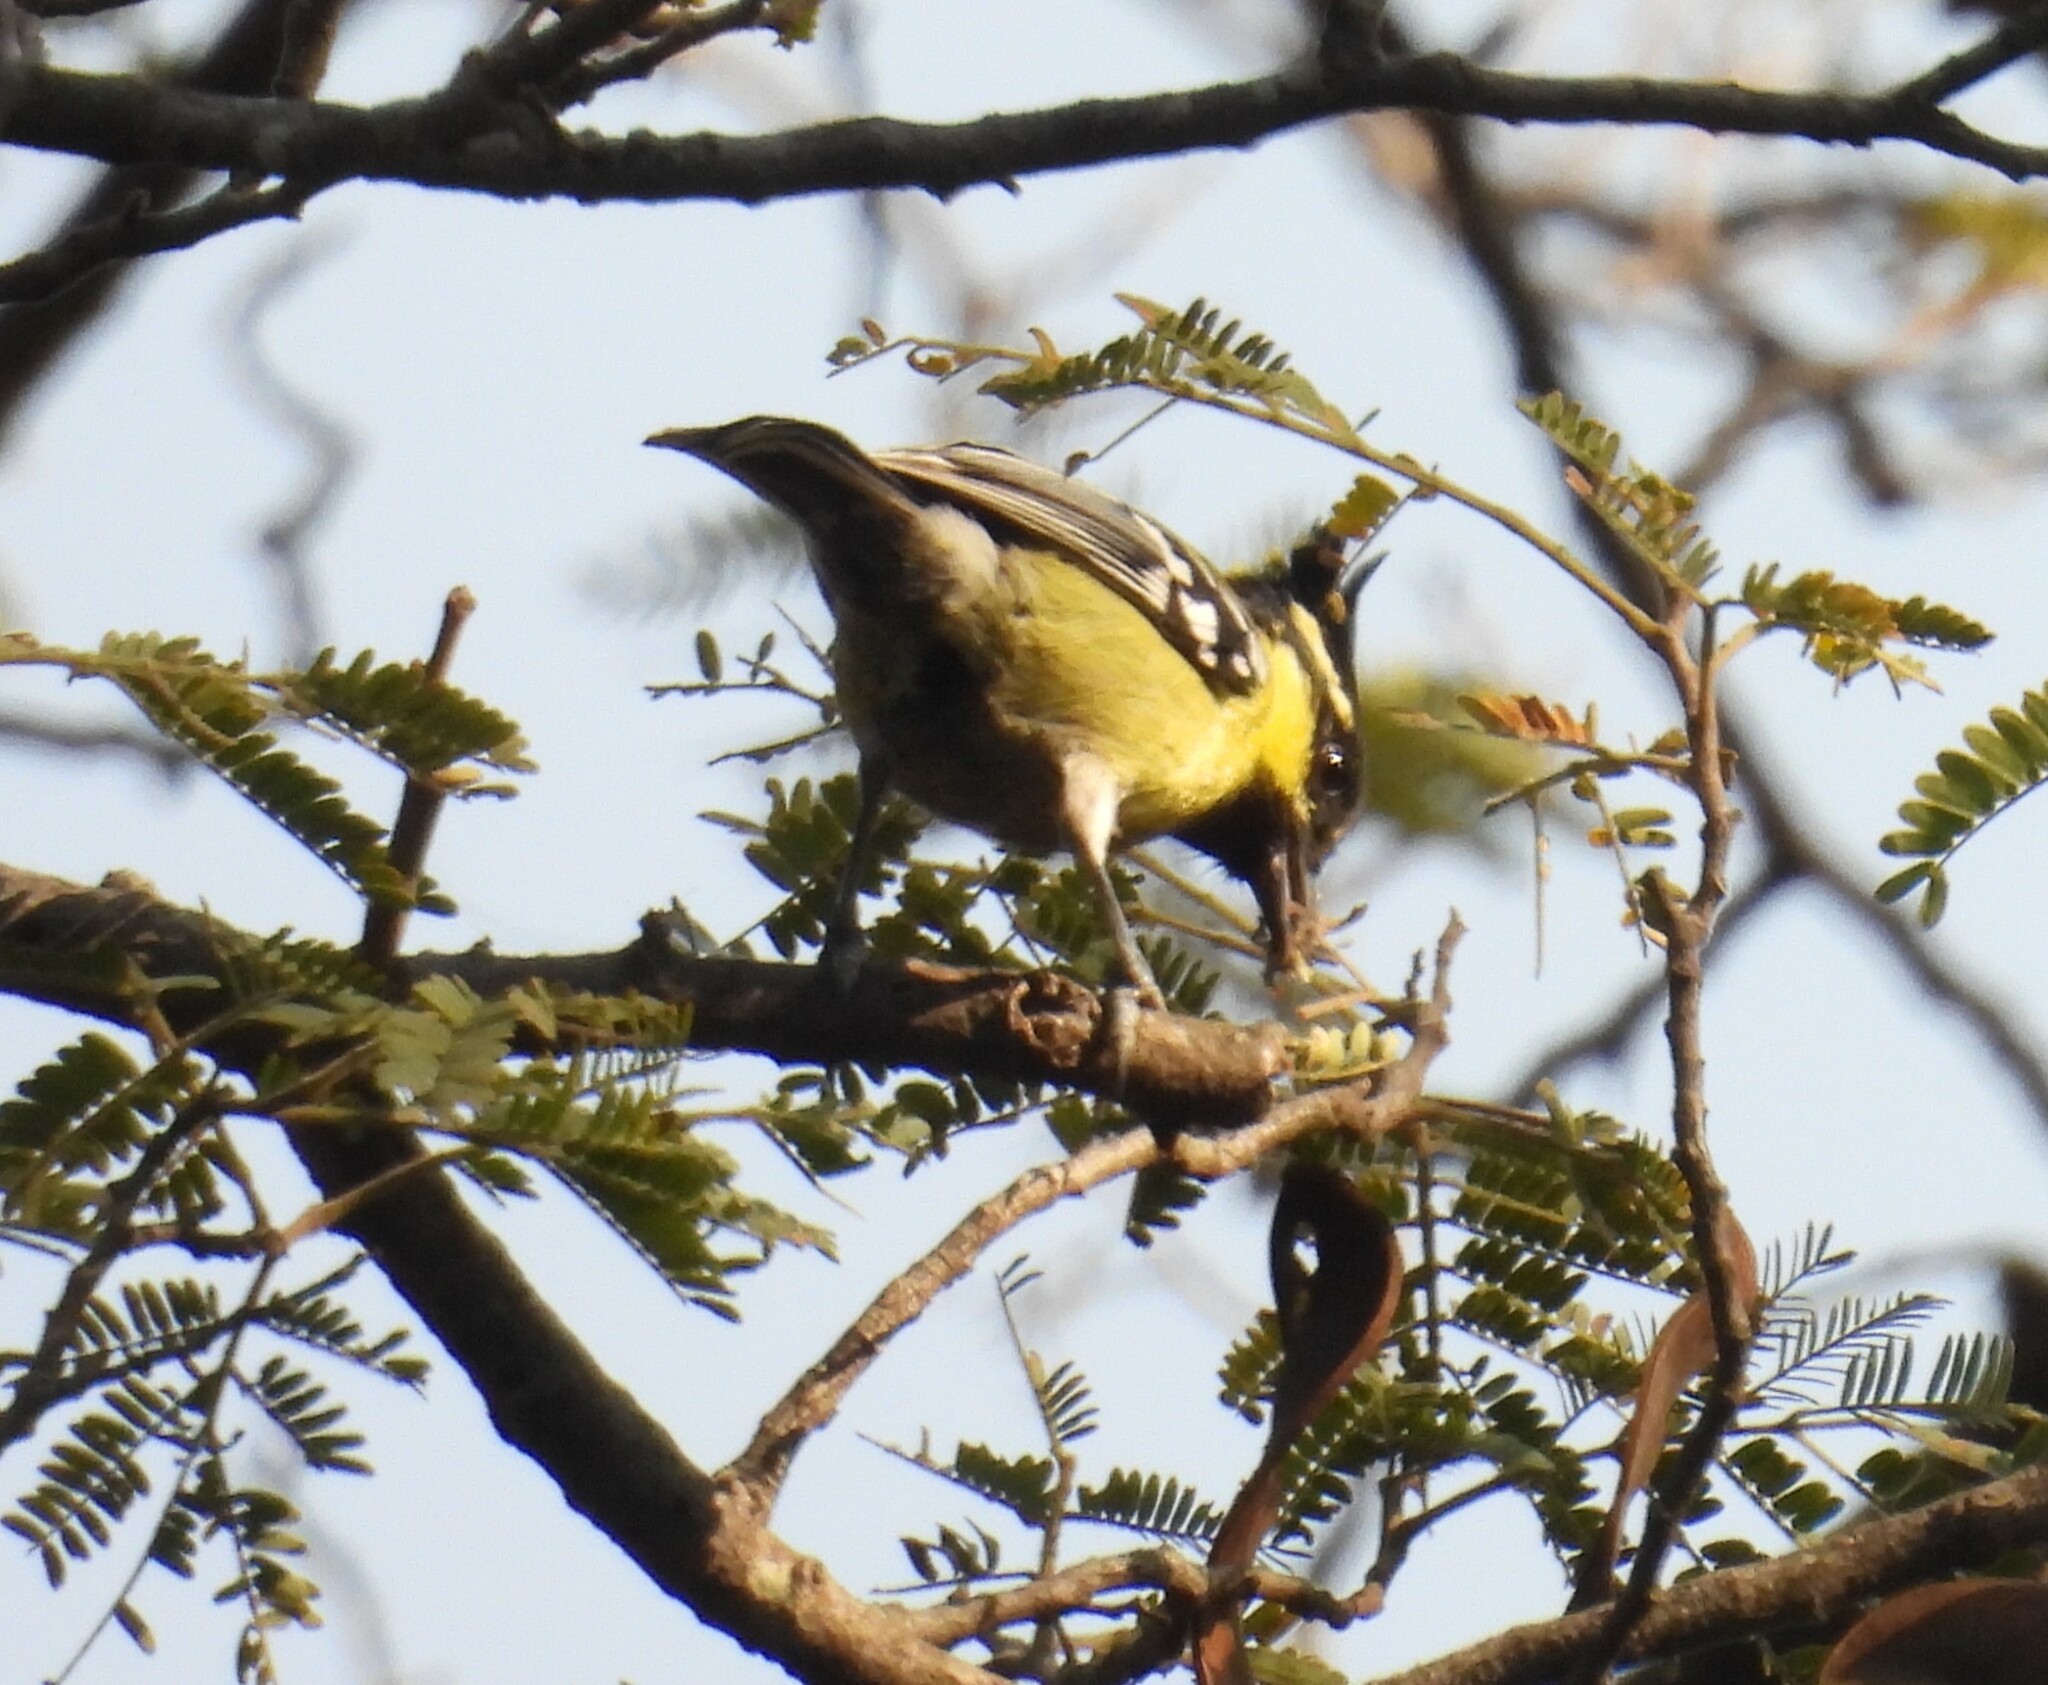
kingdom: Animalia
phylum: Chordata
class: Aves
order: Passeriformes
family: Paridae
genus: Parus
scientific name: Parus aplonotus
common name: Indian black-lored tit
